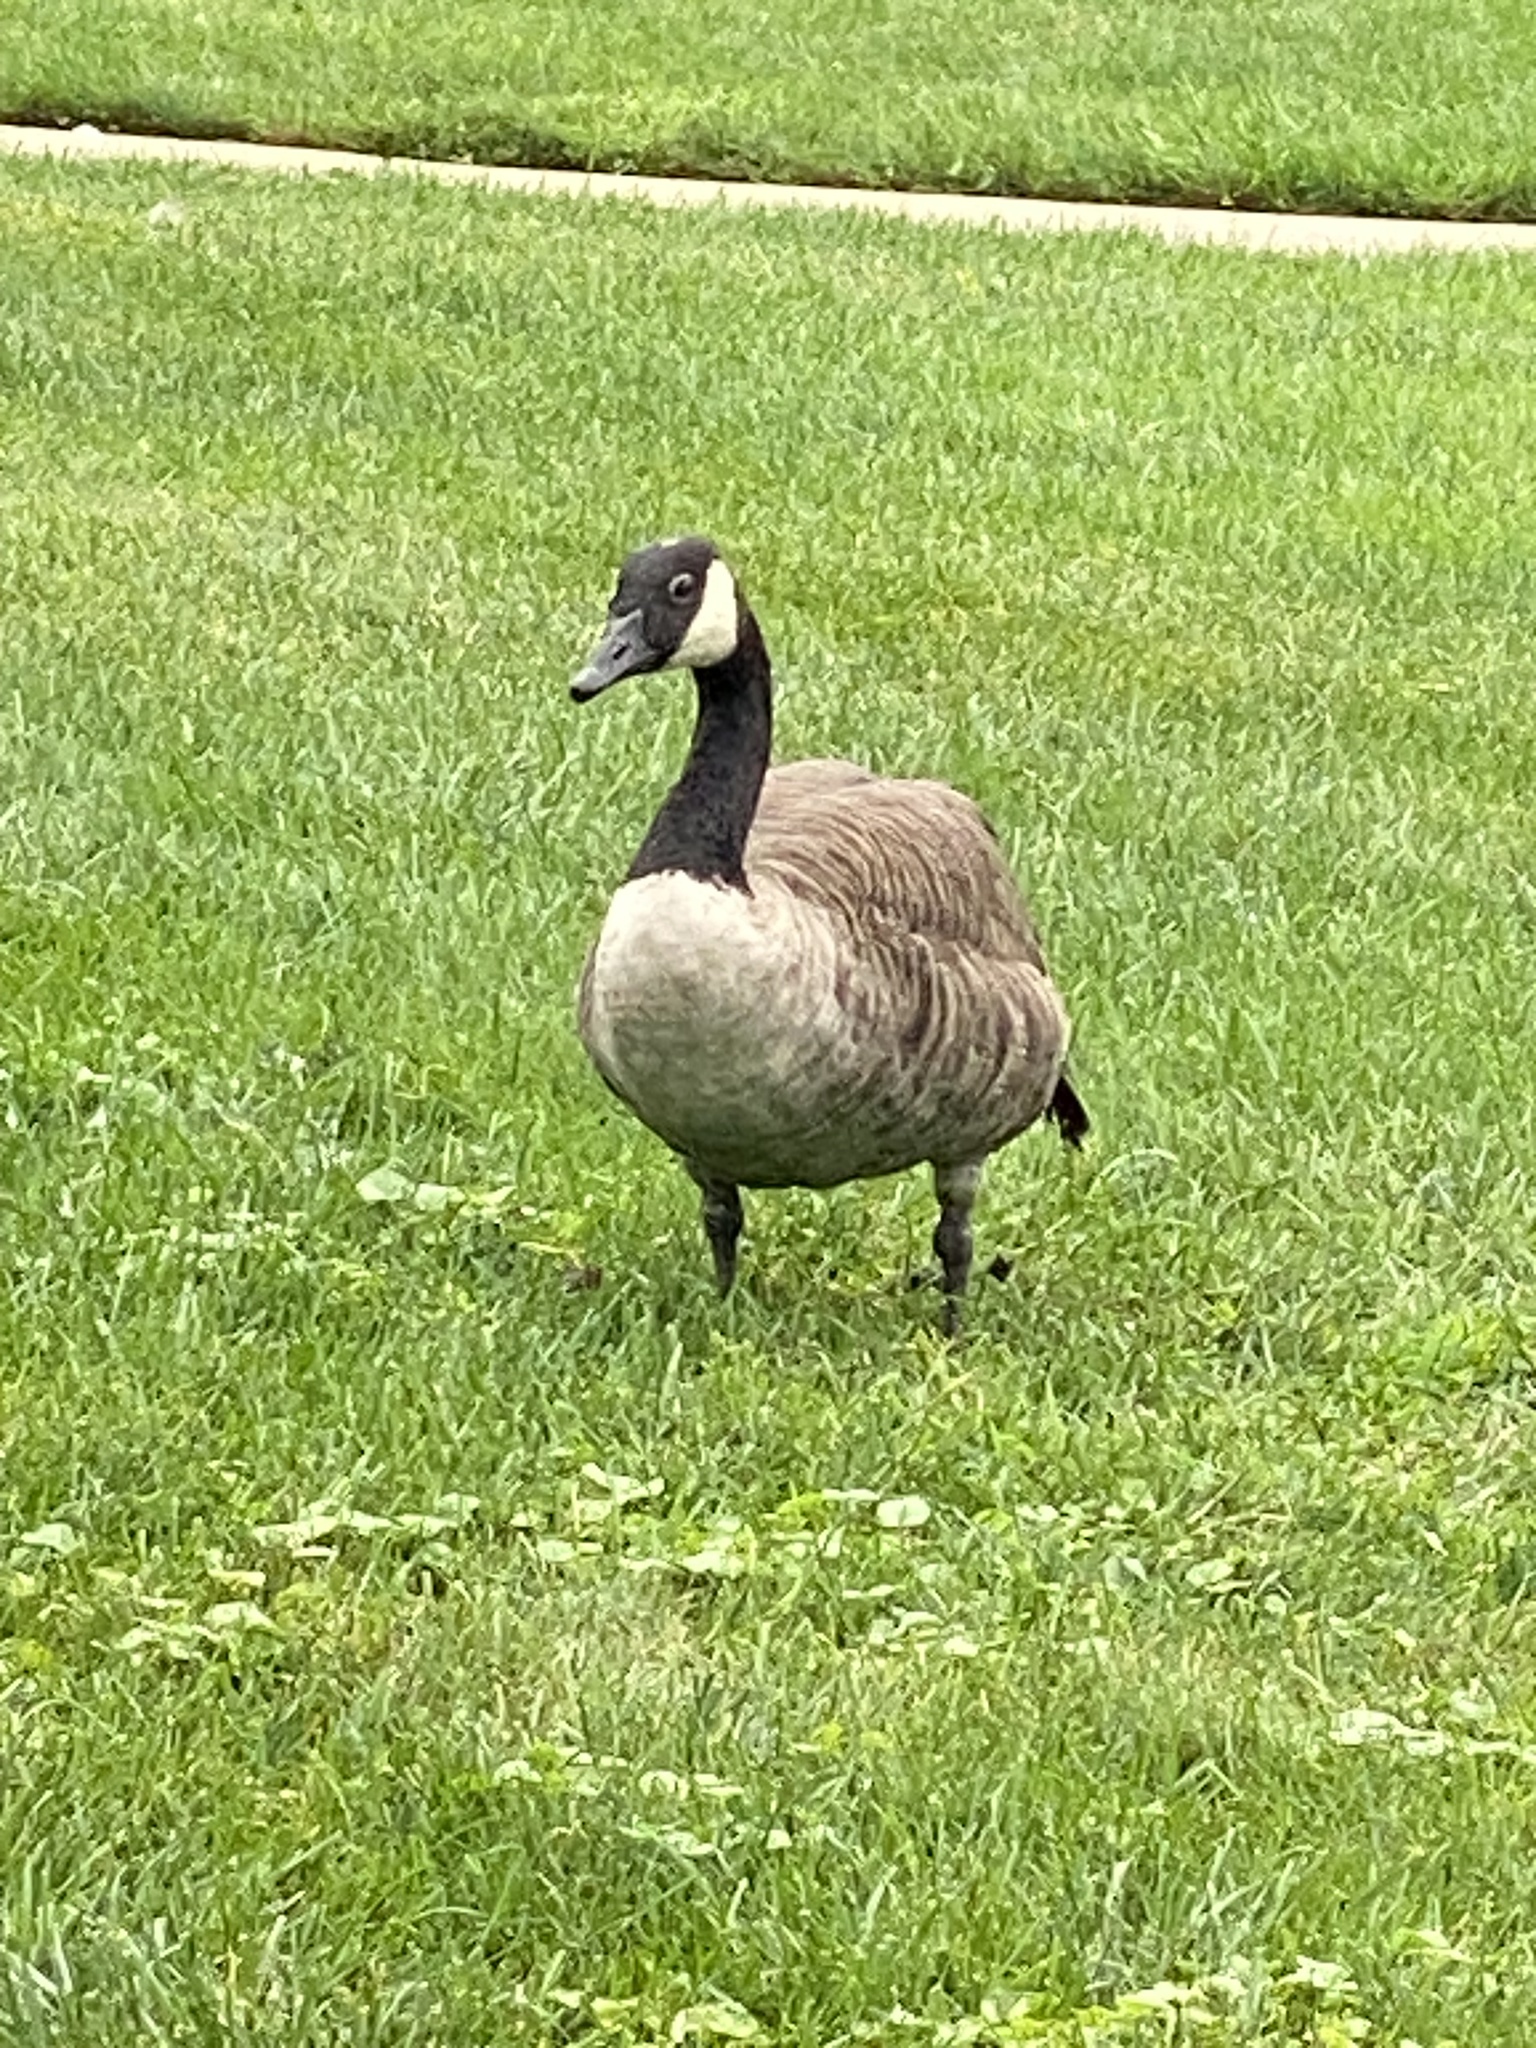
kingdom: Animalia
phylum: Chordata
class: Aves
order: Anseriformes
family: Anatidae
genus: Branta
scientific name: Branta canadensis
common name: Canada goose
